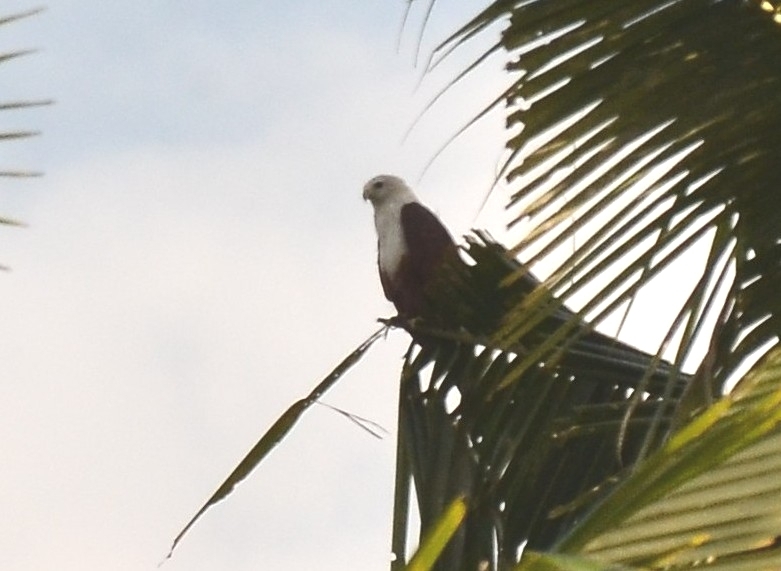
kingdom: Animalia
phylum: Chordata
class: Aves
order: Accipitriformes
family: Accipitridae
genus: Haliastur
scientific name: Haliastur indus
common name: Brahminy kite
